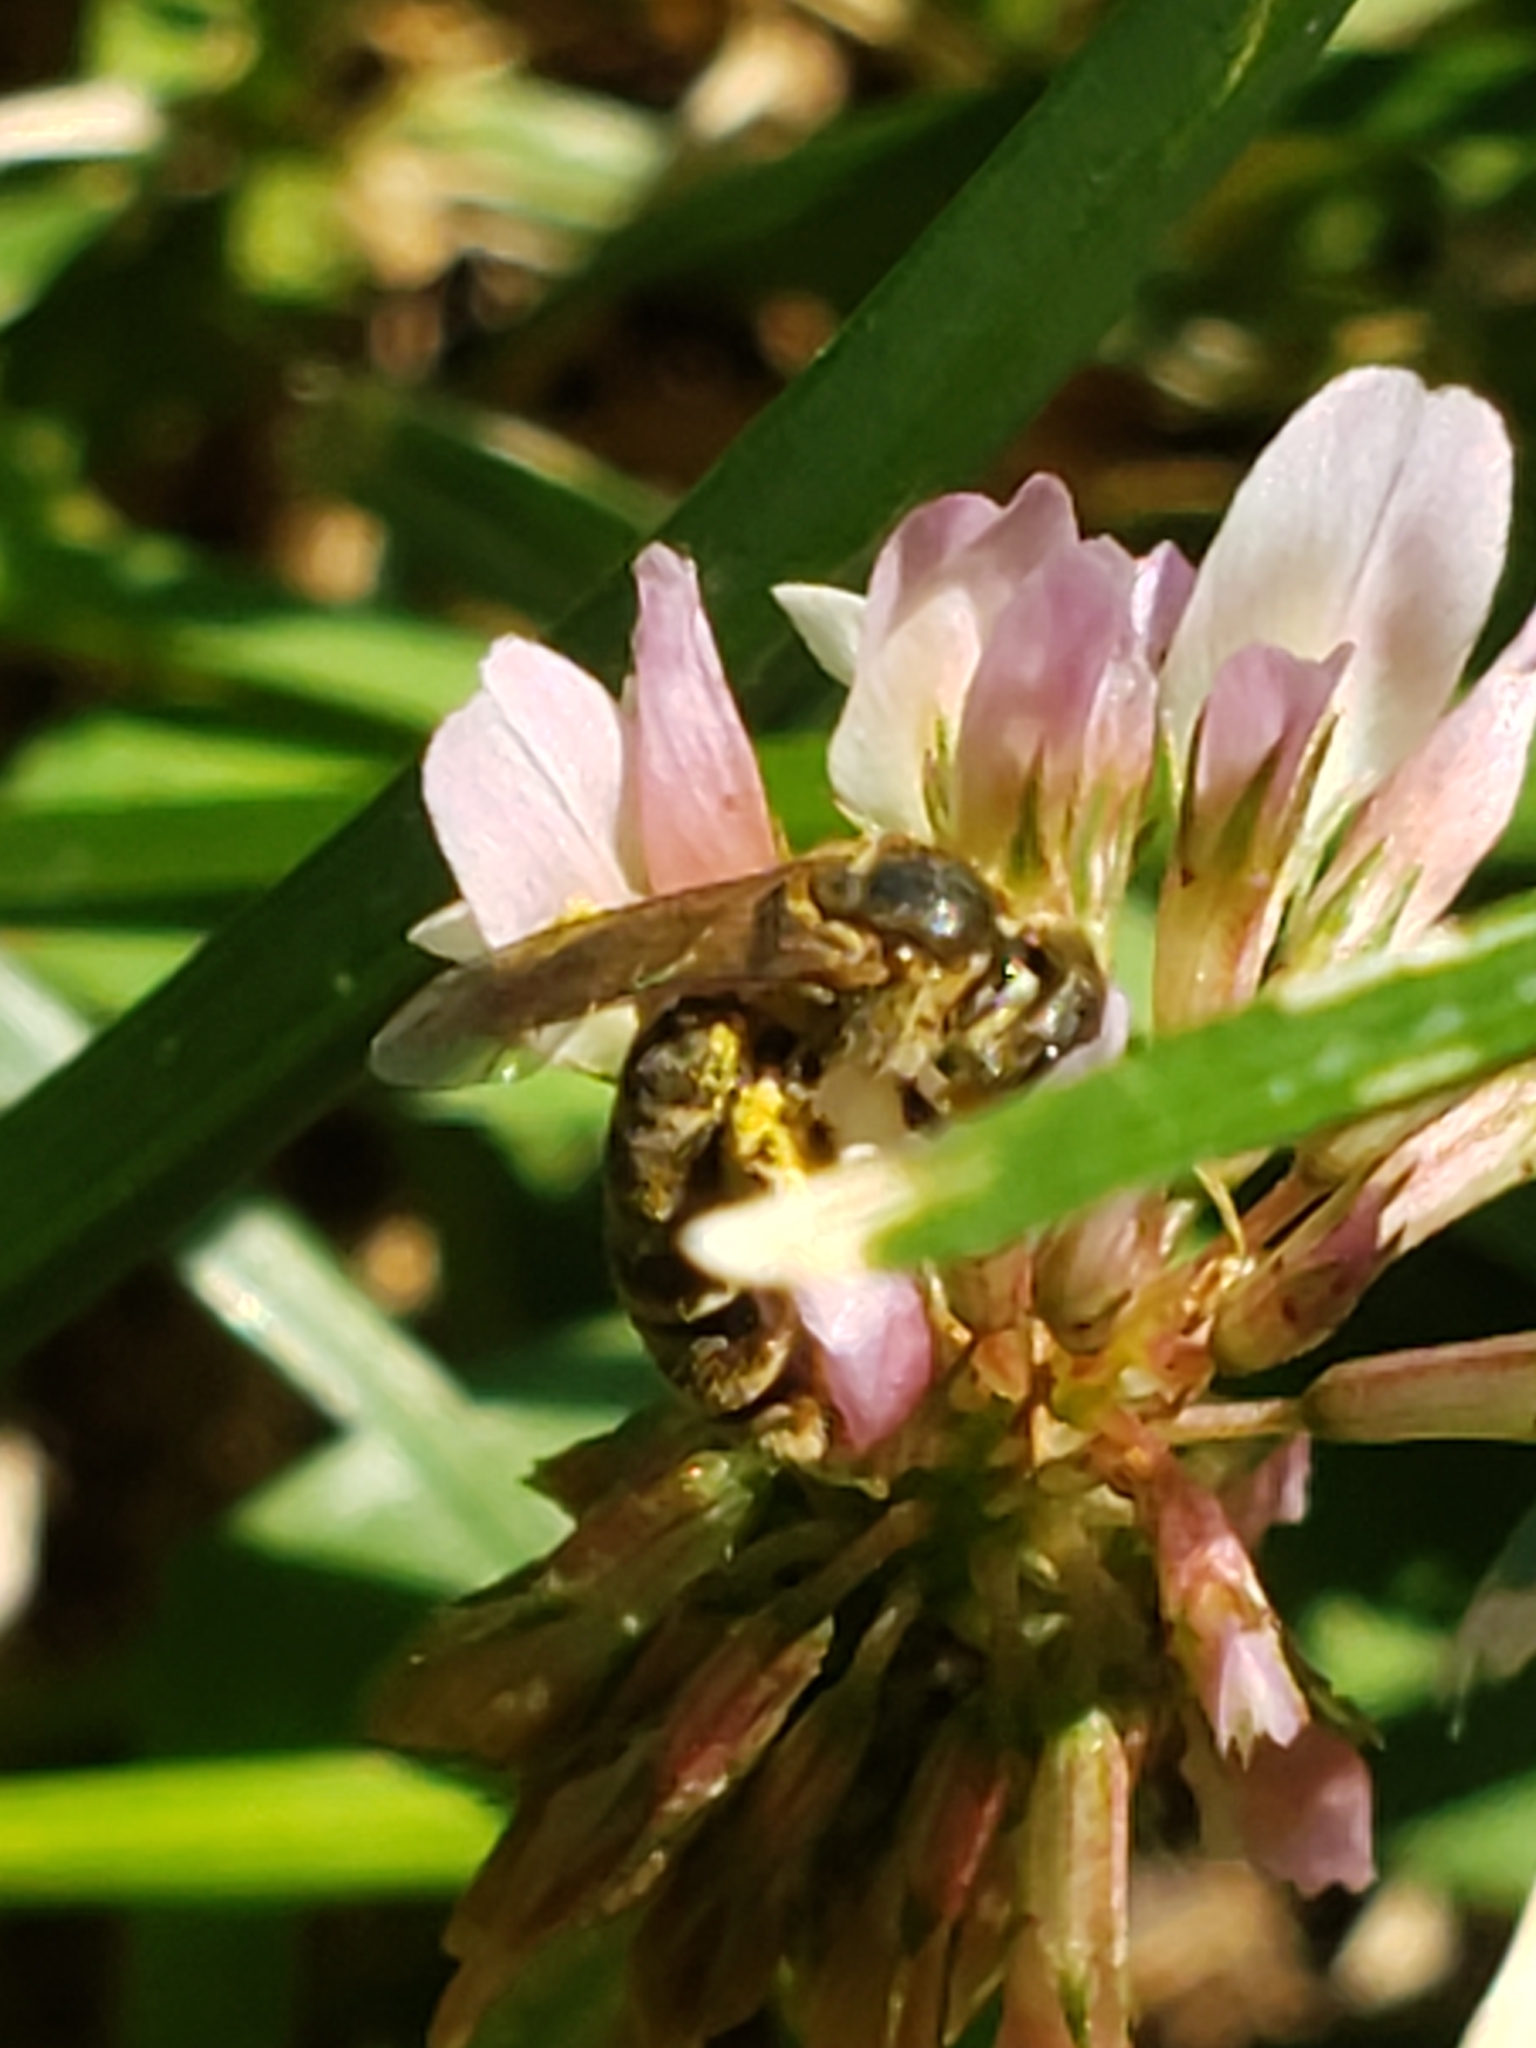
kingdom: Animalia
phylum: Arthropoda
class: Insecta
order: Hymenoptera
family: Halictidae
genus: Halictus
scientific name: Halictus confusus
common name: Southern bronze furrow bee
